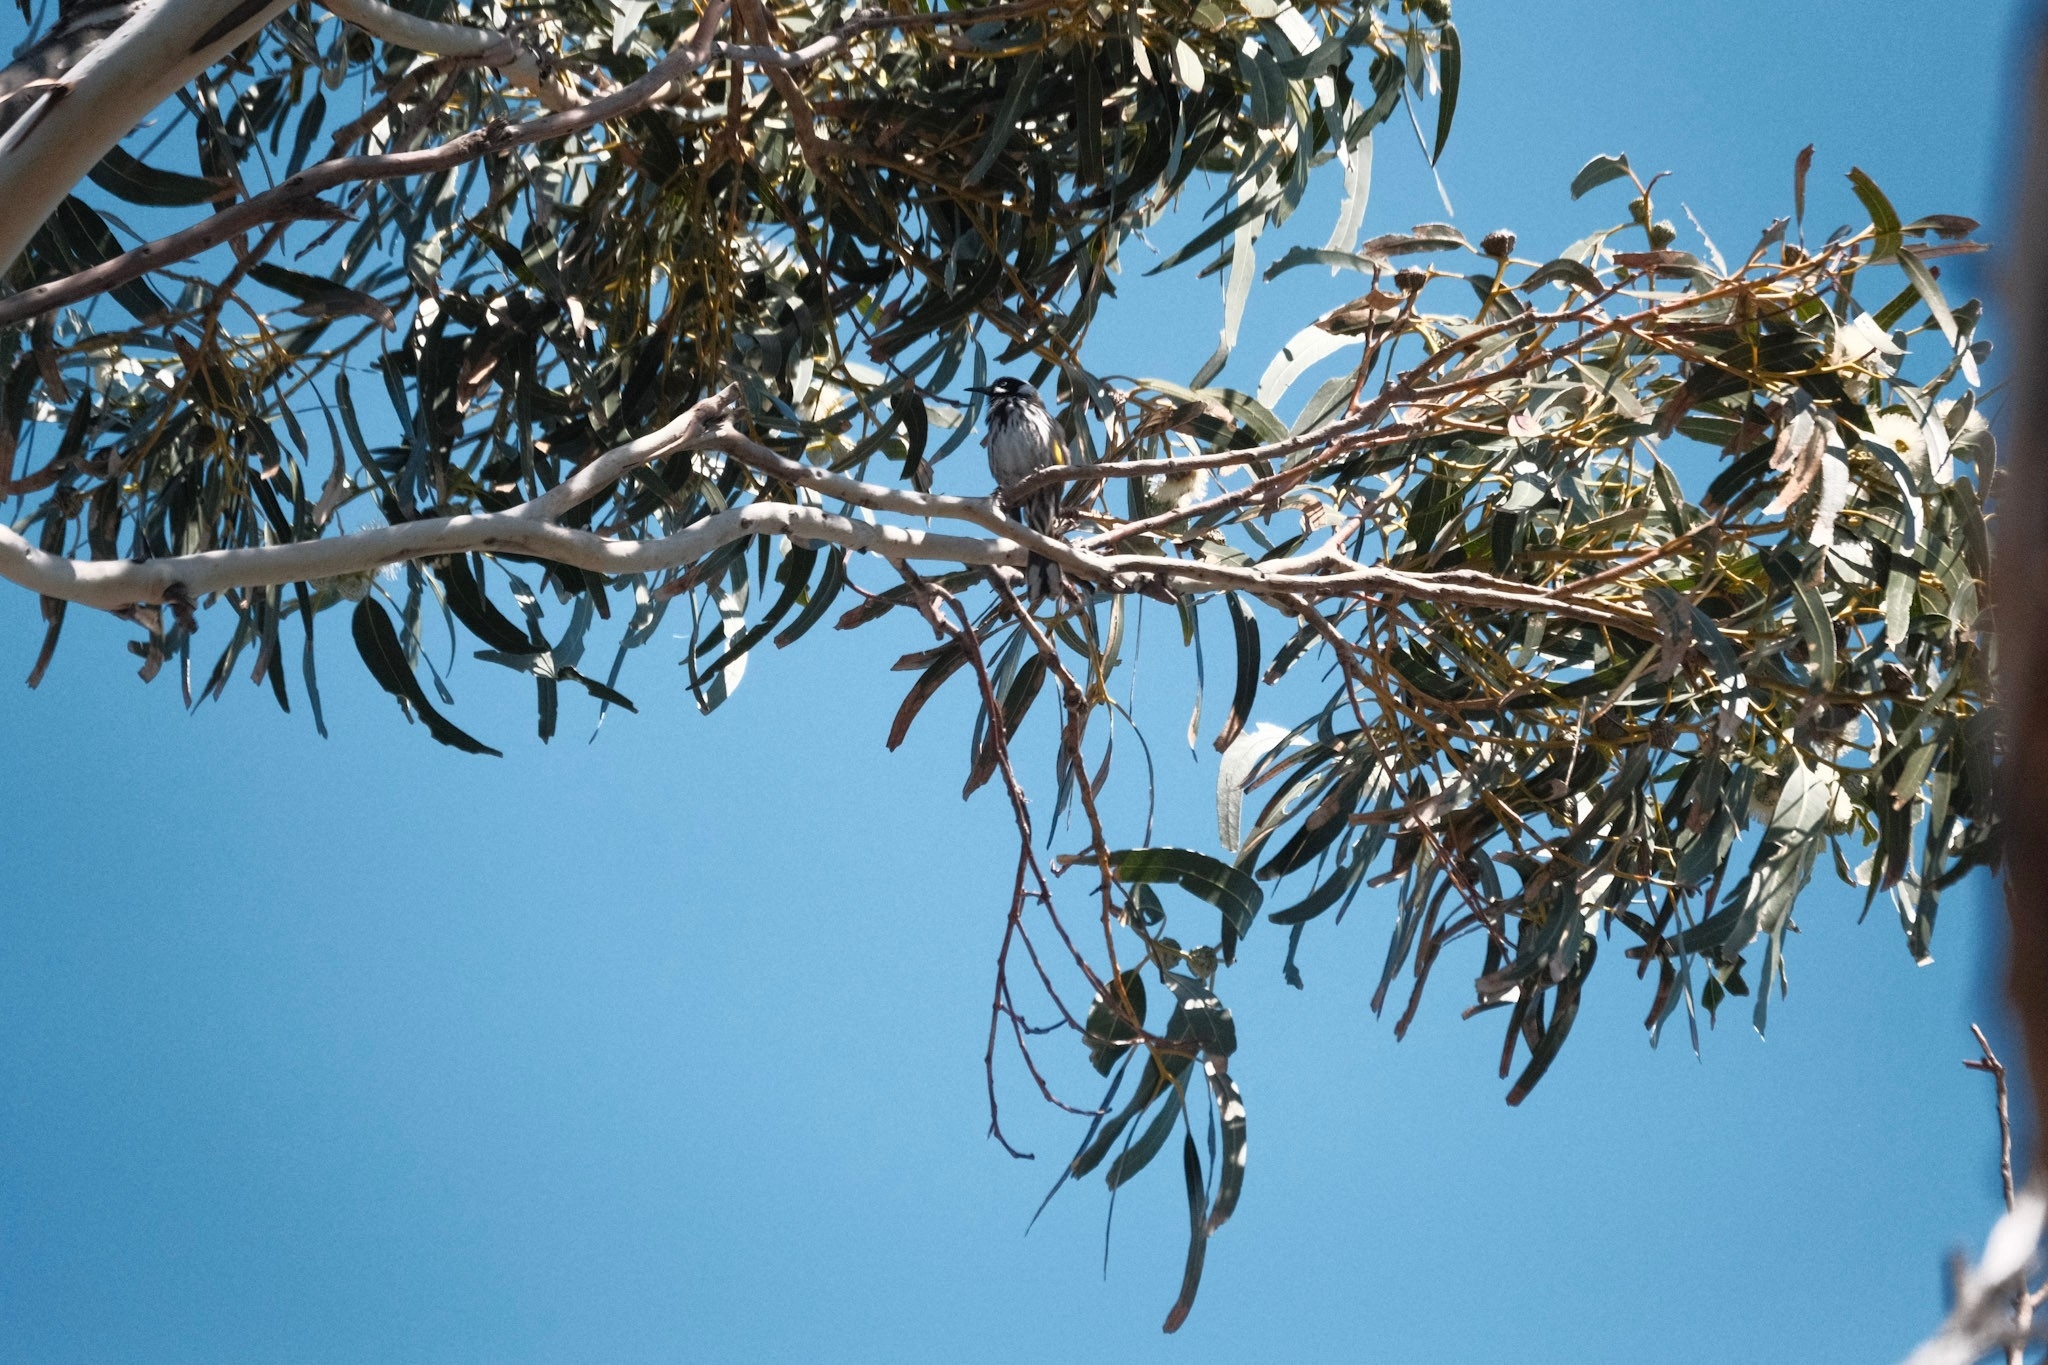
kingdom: Animalia
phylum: Chordata
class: Aves
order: Passeriformes
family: Meliphagidae
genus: Phylidonyris
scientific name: Phylidonyris novaehollandiae
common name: New holland honeyeater
